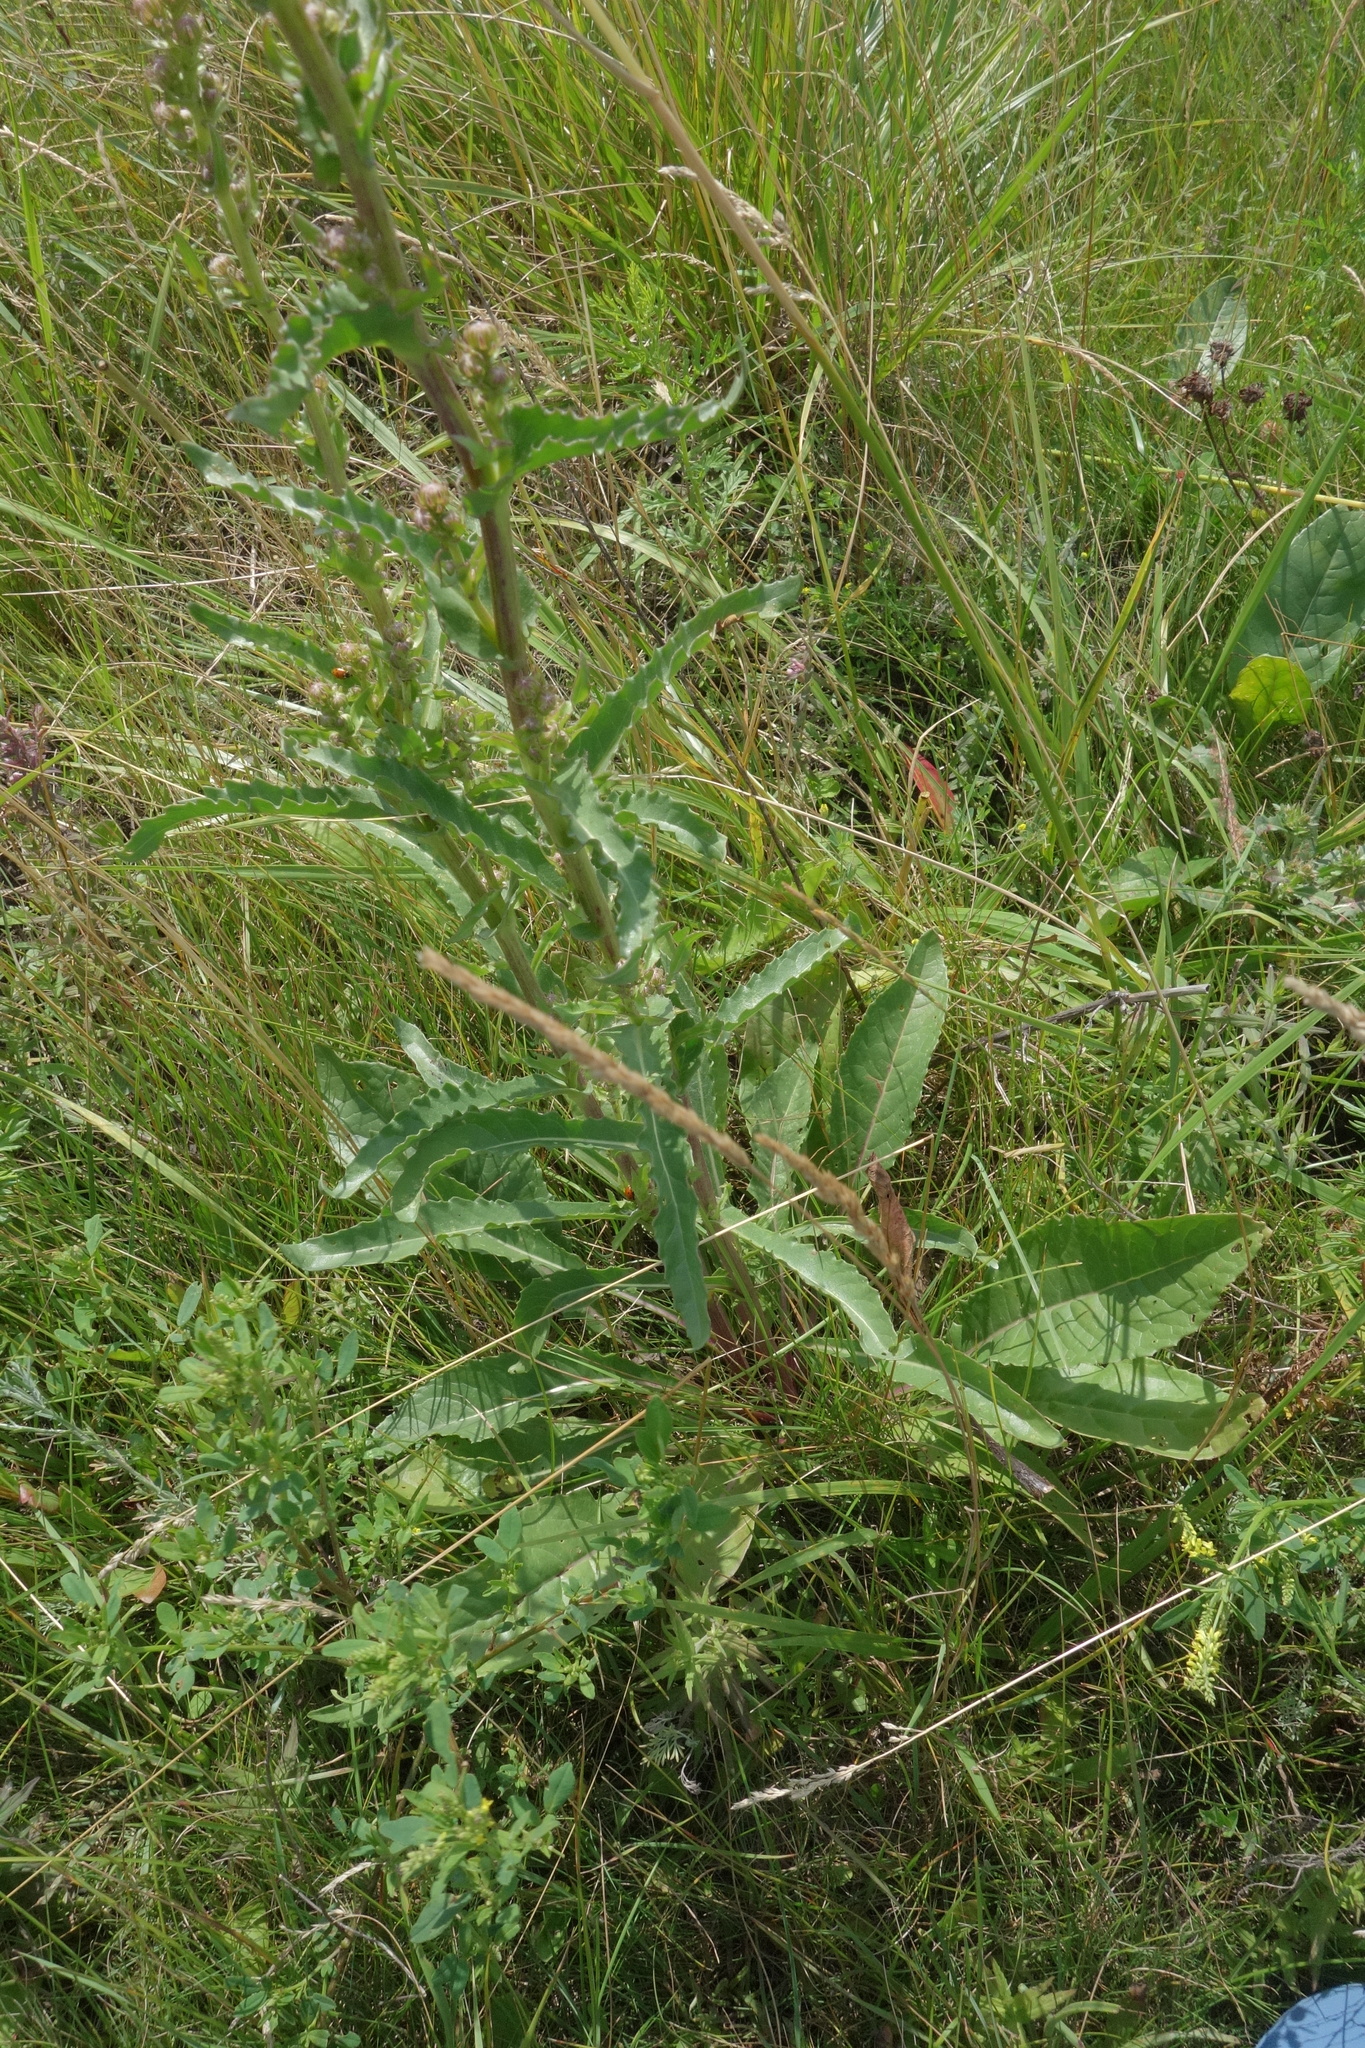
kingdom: Plantae
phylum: Tracheophyta
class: Magnoliopsida
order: Asterales
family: Asteraceae
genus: Jacobaea
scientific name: Jacobaea racemosa
